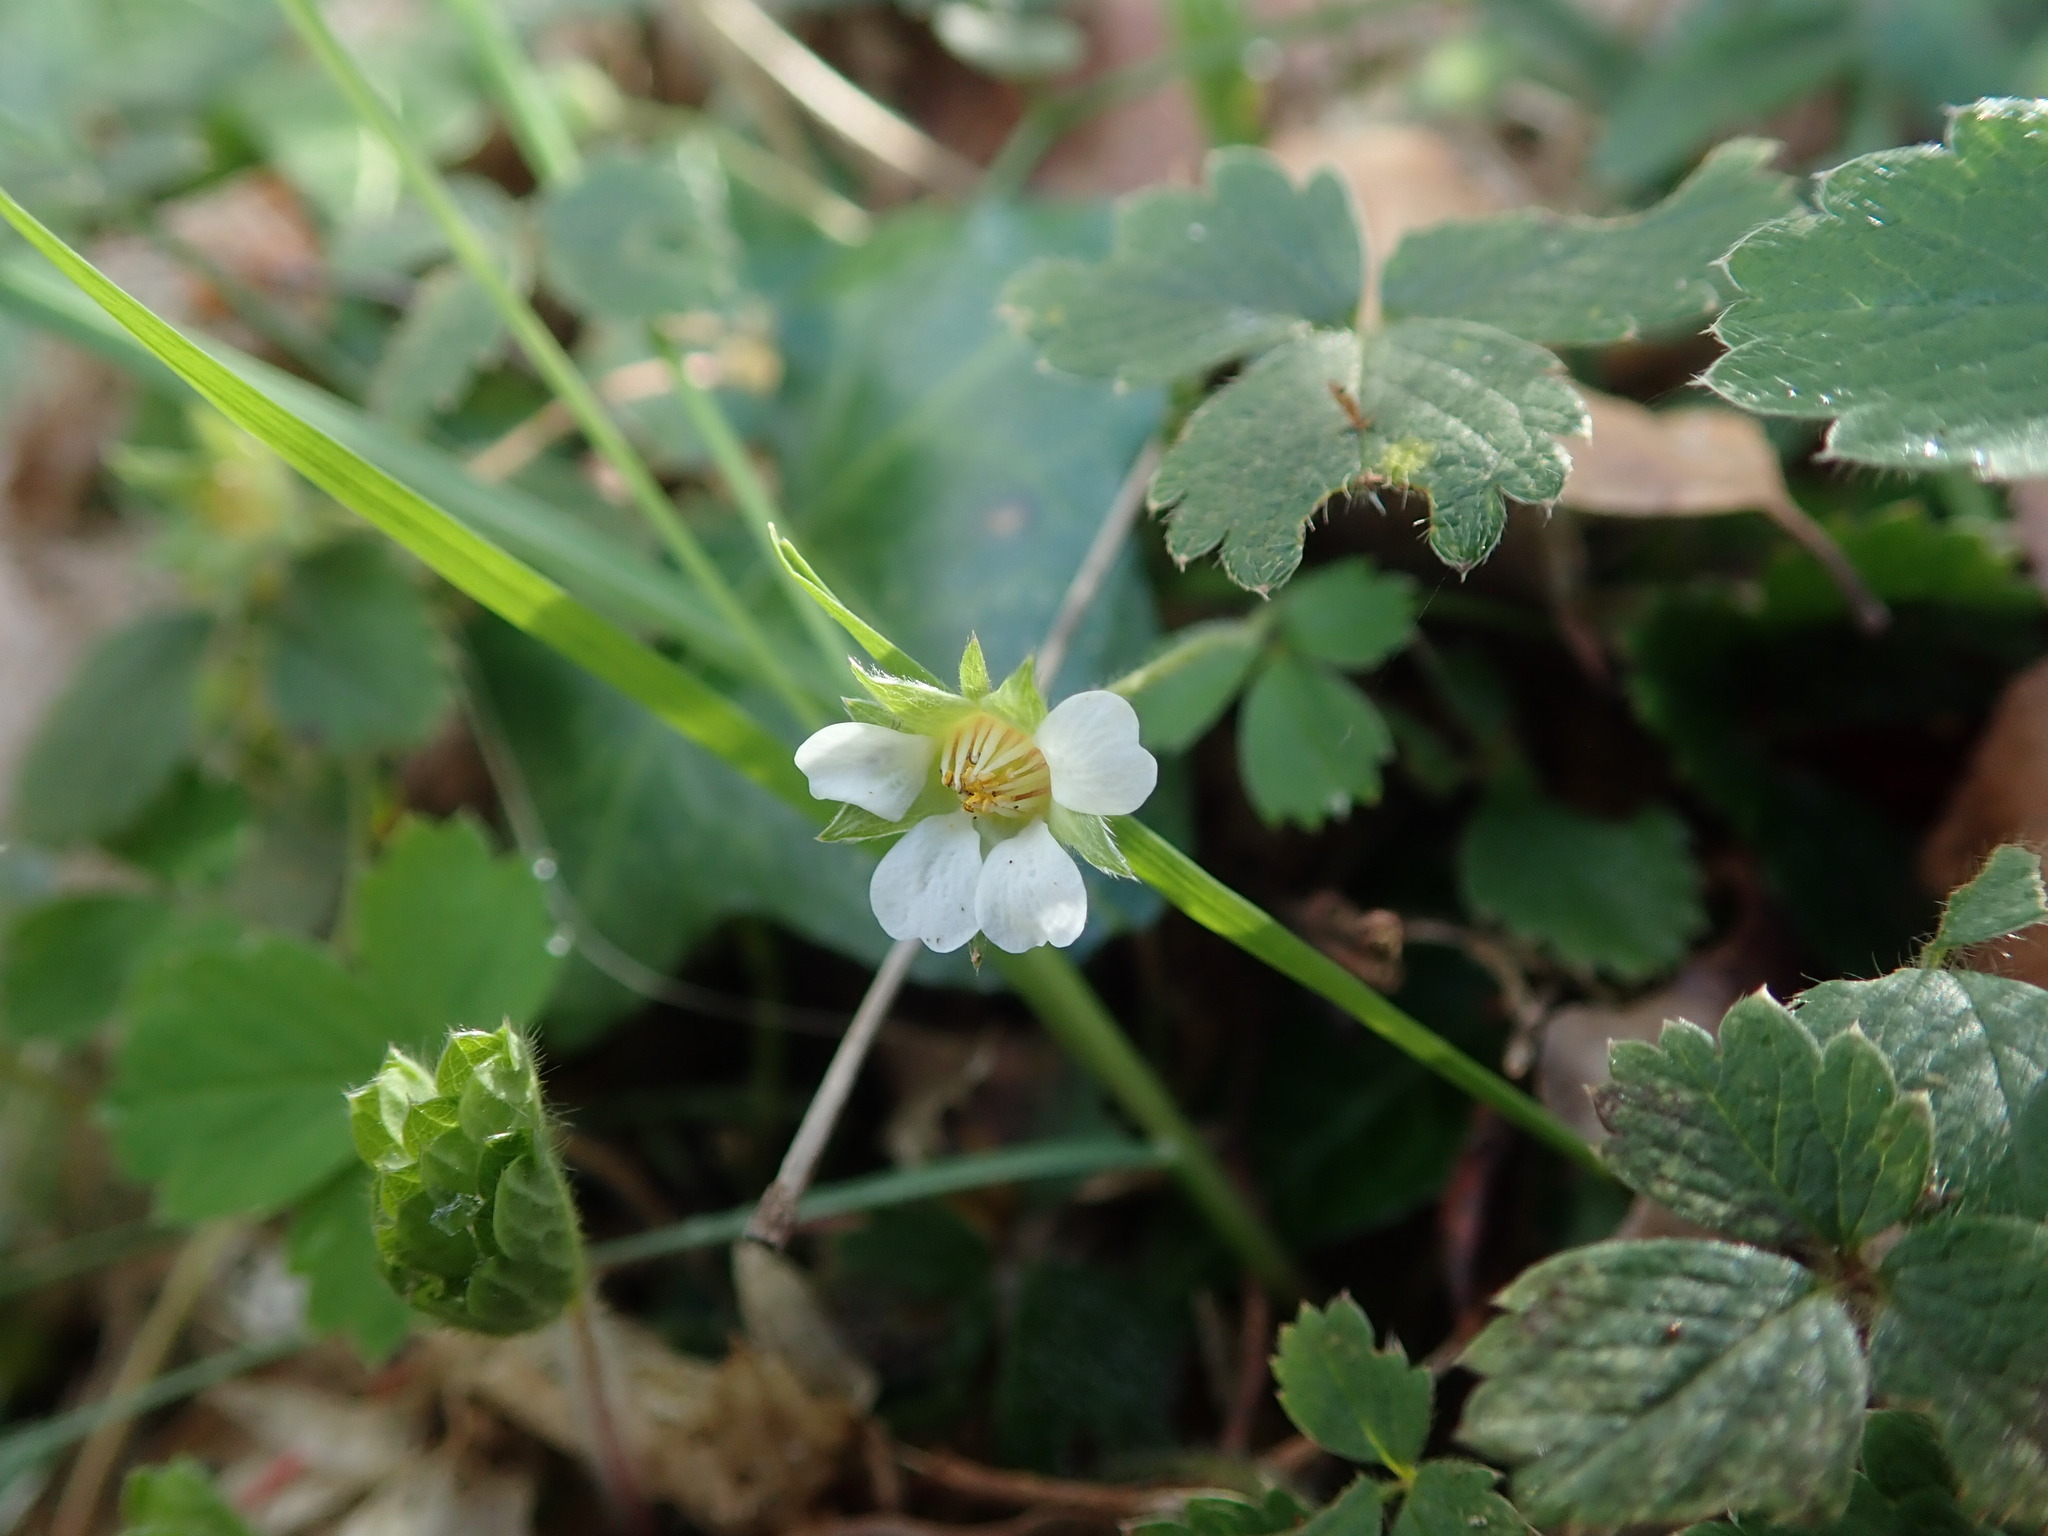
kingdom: Plantae
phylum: Tracheophyta
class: Magnoliopsida
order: Rosales
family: Rosaceae
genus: Potentilla
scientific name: Potentilla sterilis
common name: Barren strawberry
